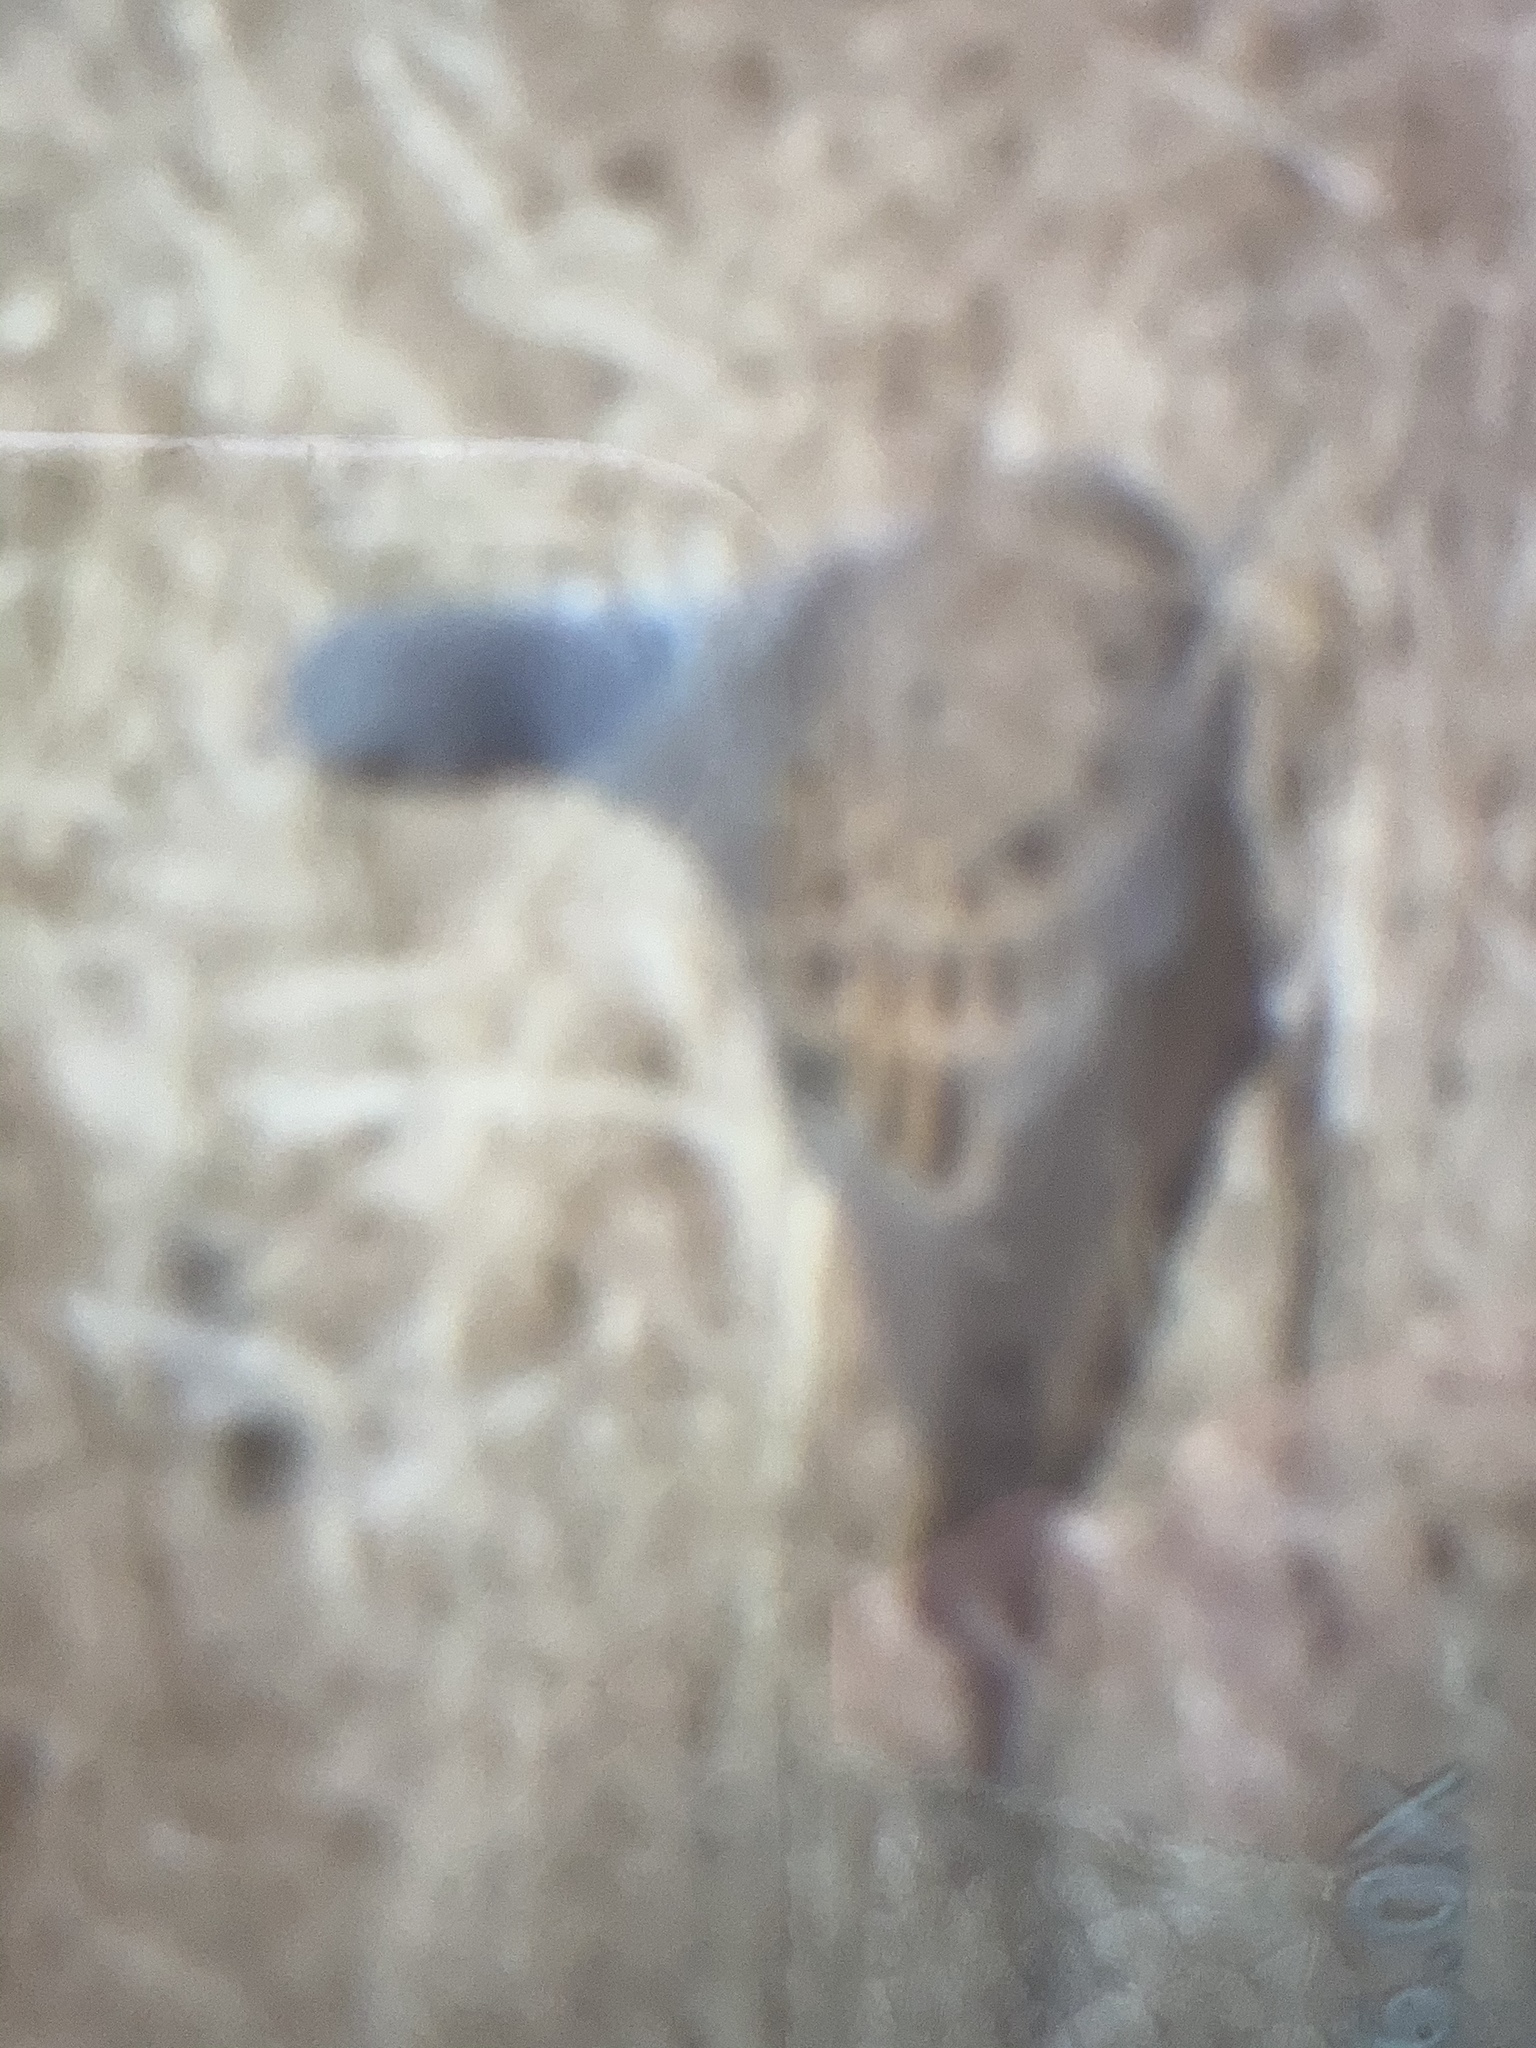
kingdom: Animalia
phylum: Chordata
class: Aves
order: Columbiformes
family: Columbidae
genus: Streptopelia
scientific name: Streptopelia turtur
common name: European turtle dove
